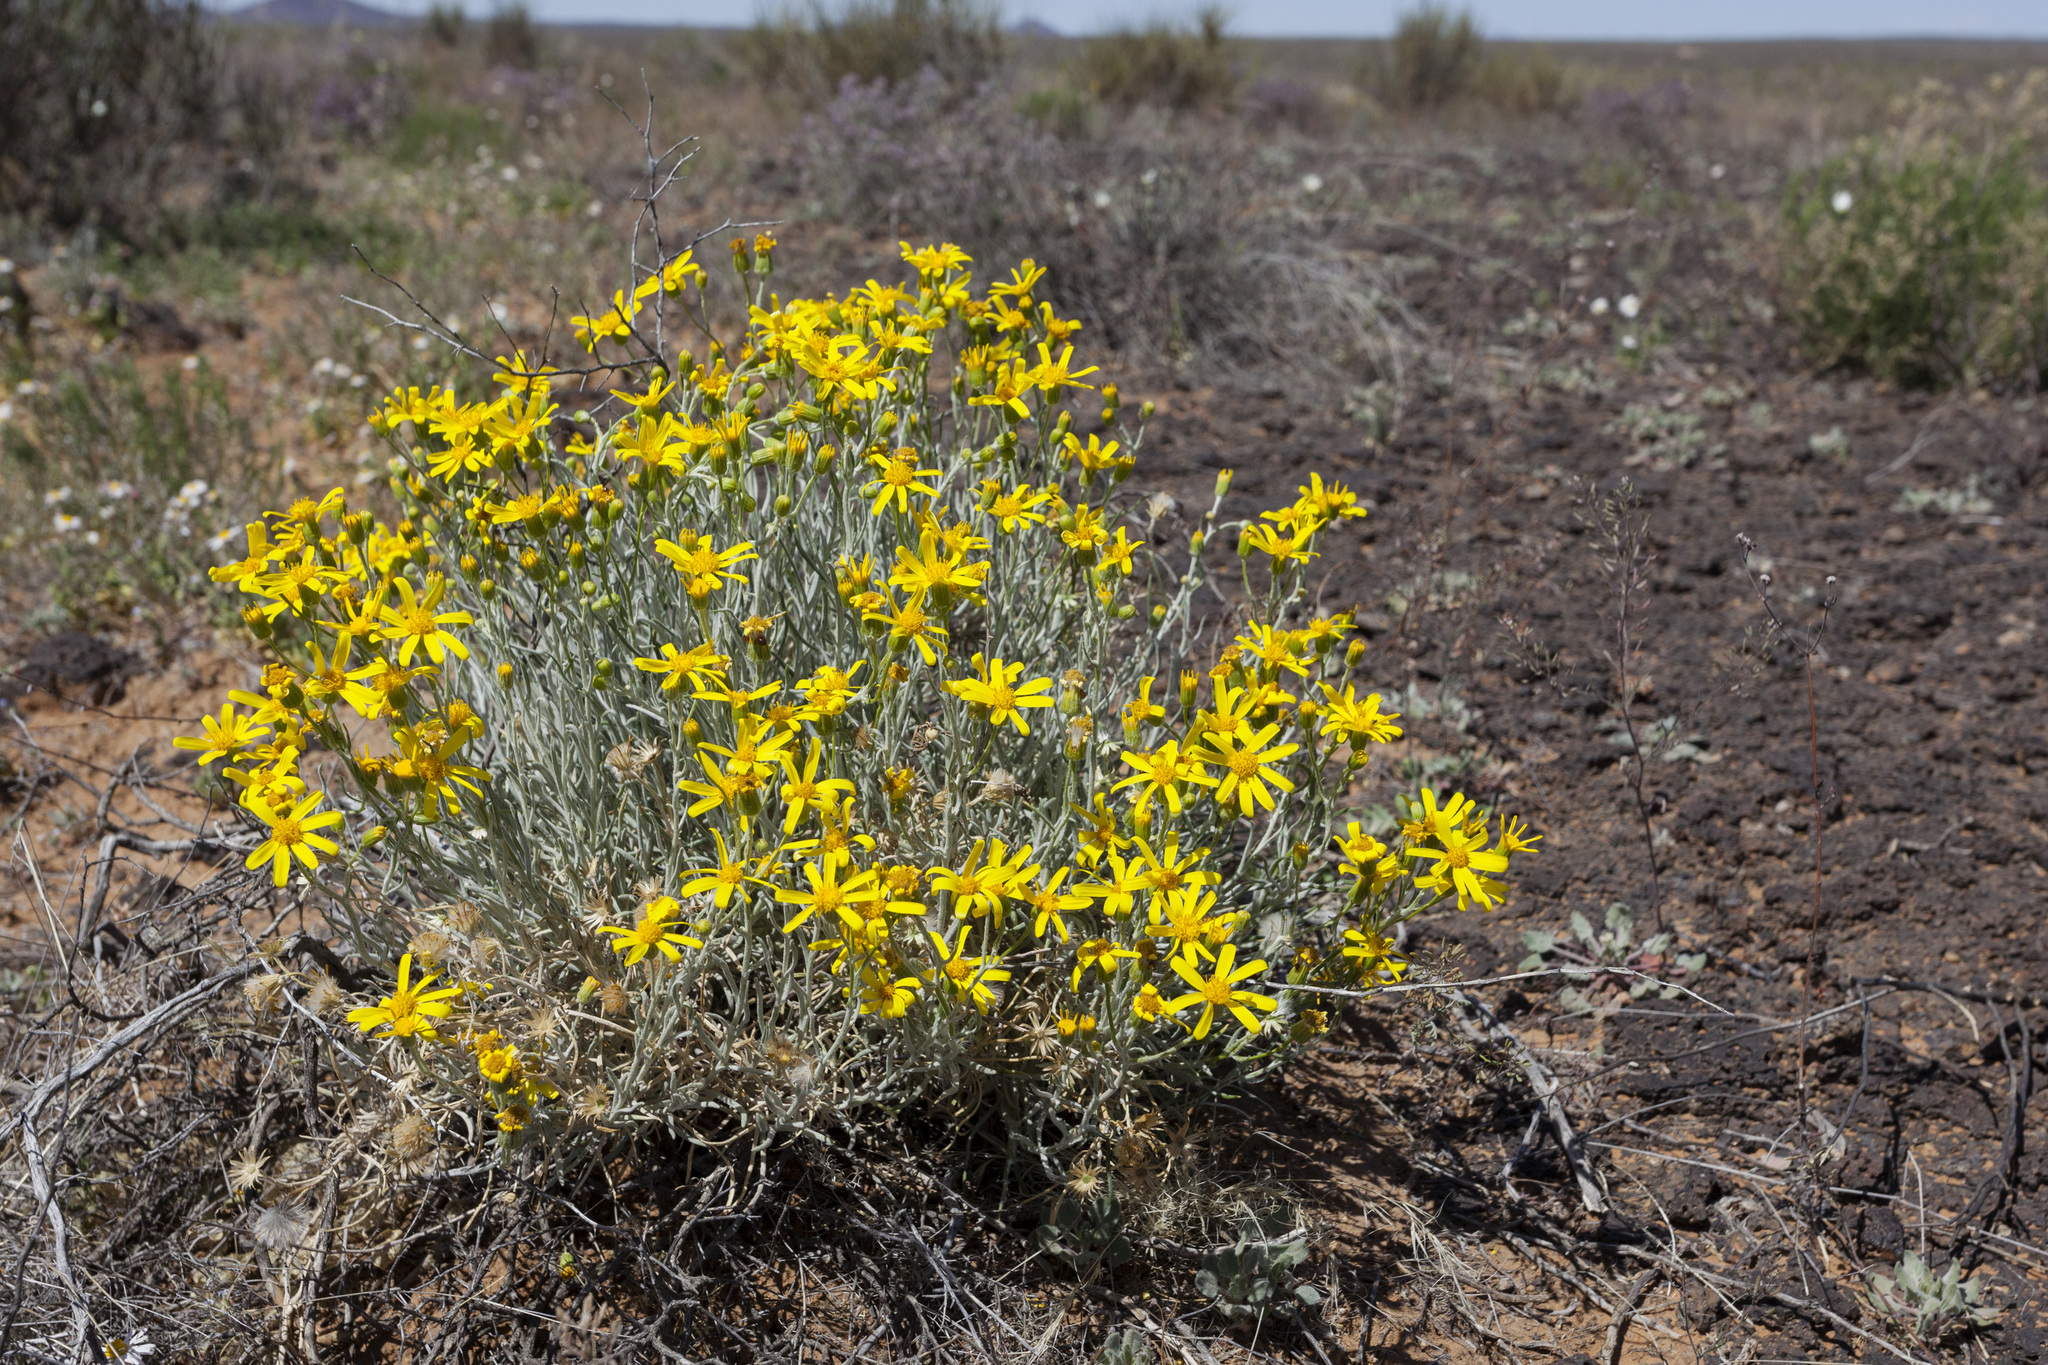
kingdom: Plantae
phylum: Tracheophyta
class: Magnoliopsida
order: Asterales
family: Asteraceae
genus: Senecio
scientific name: Senecio flaccidus
